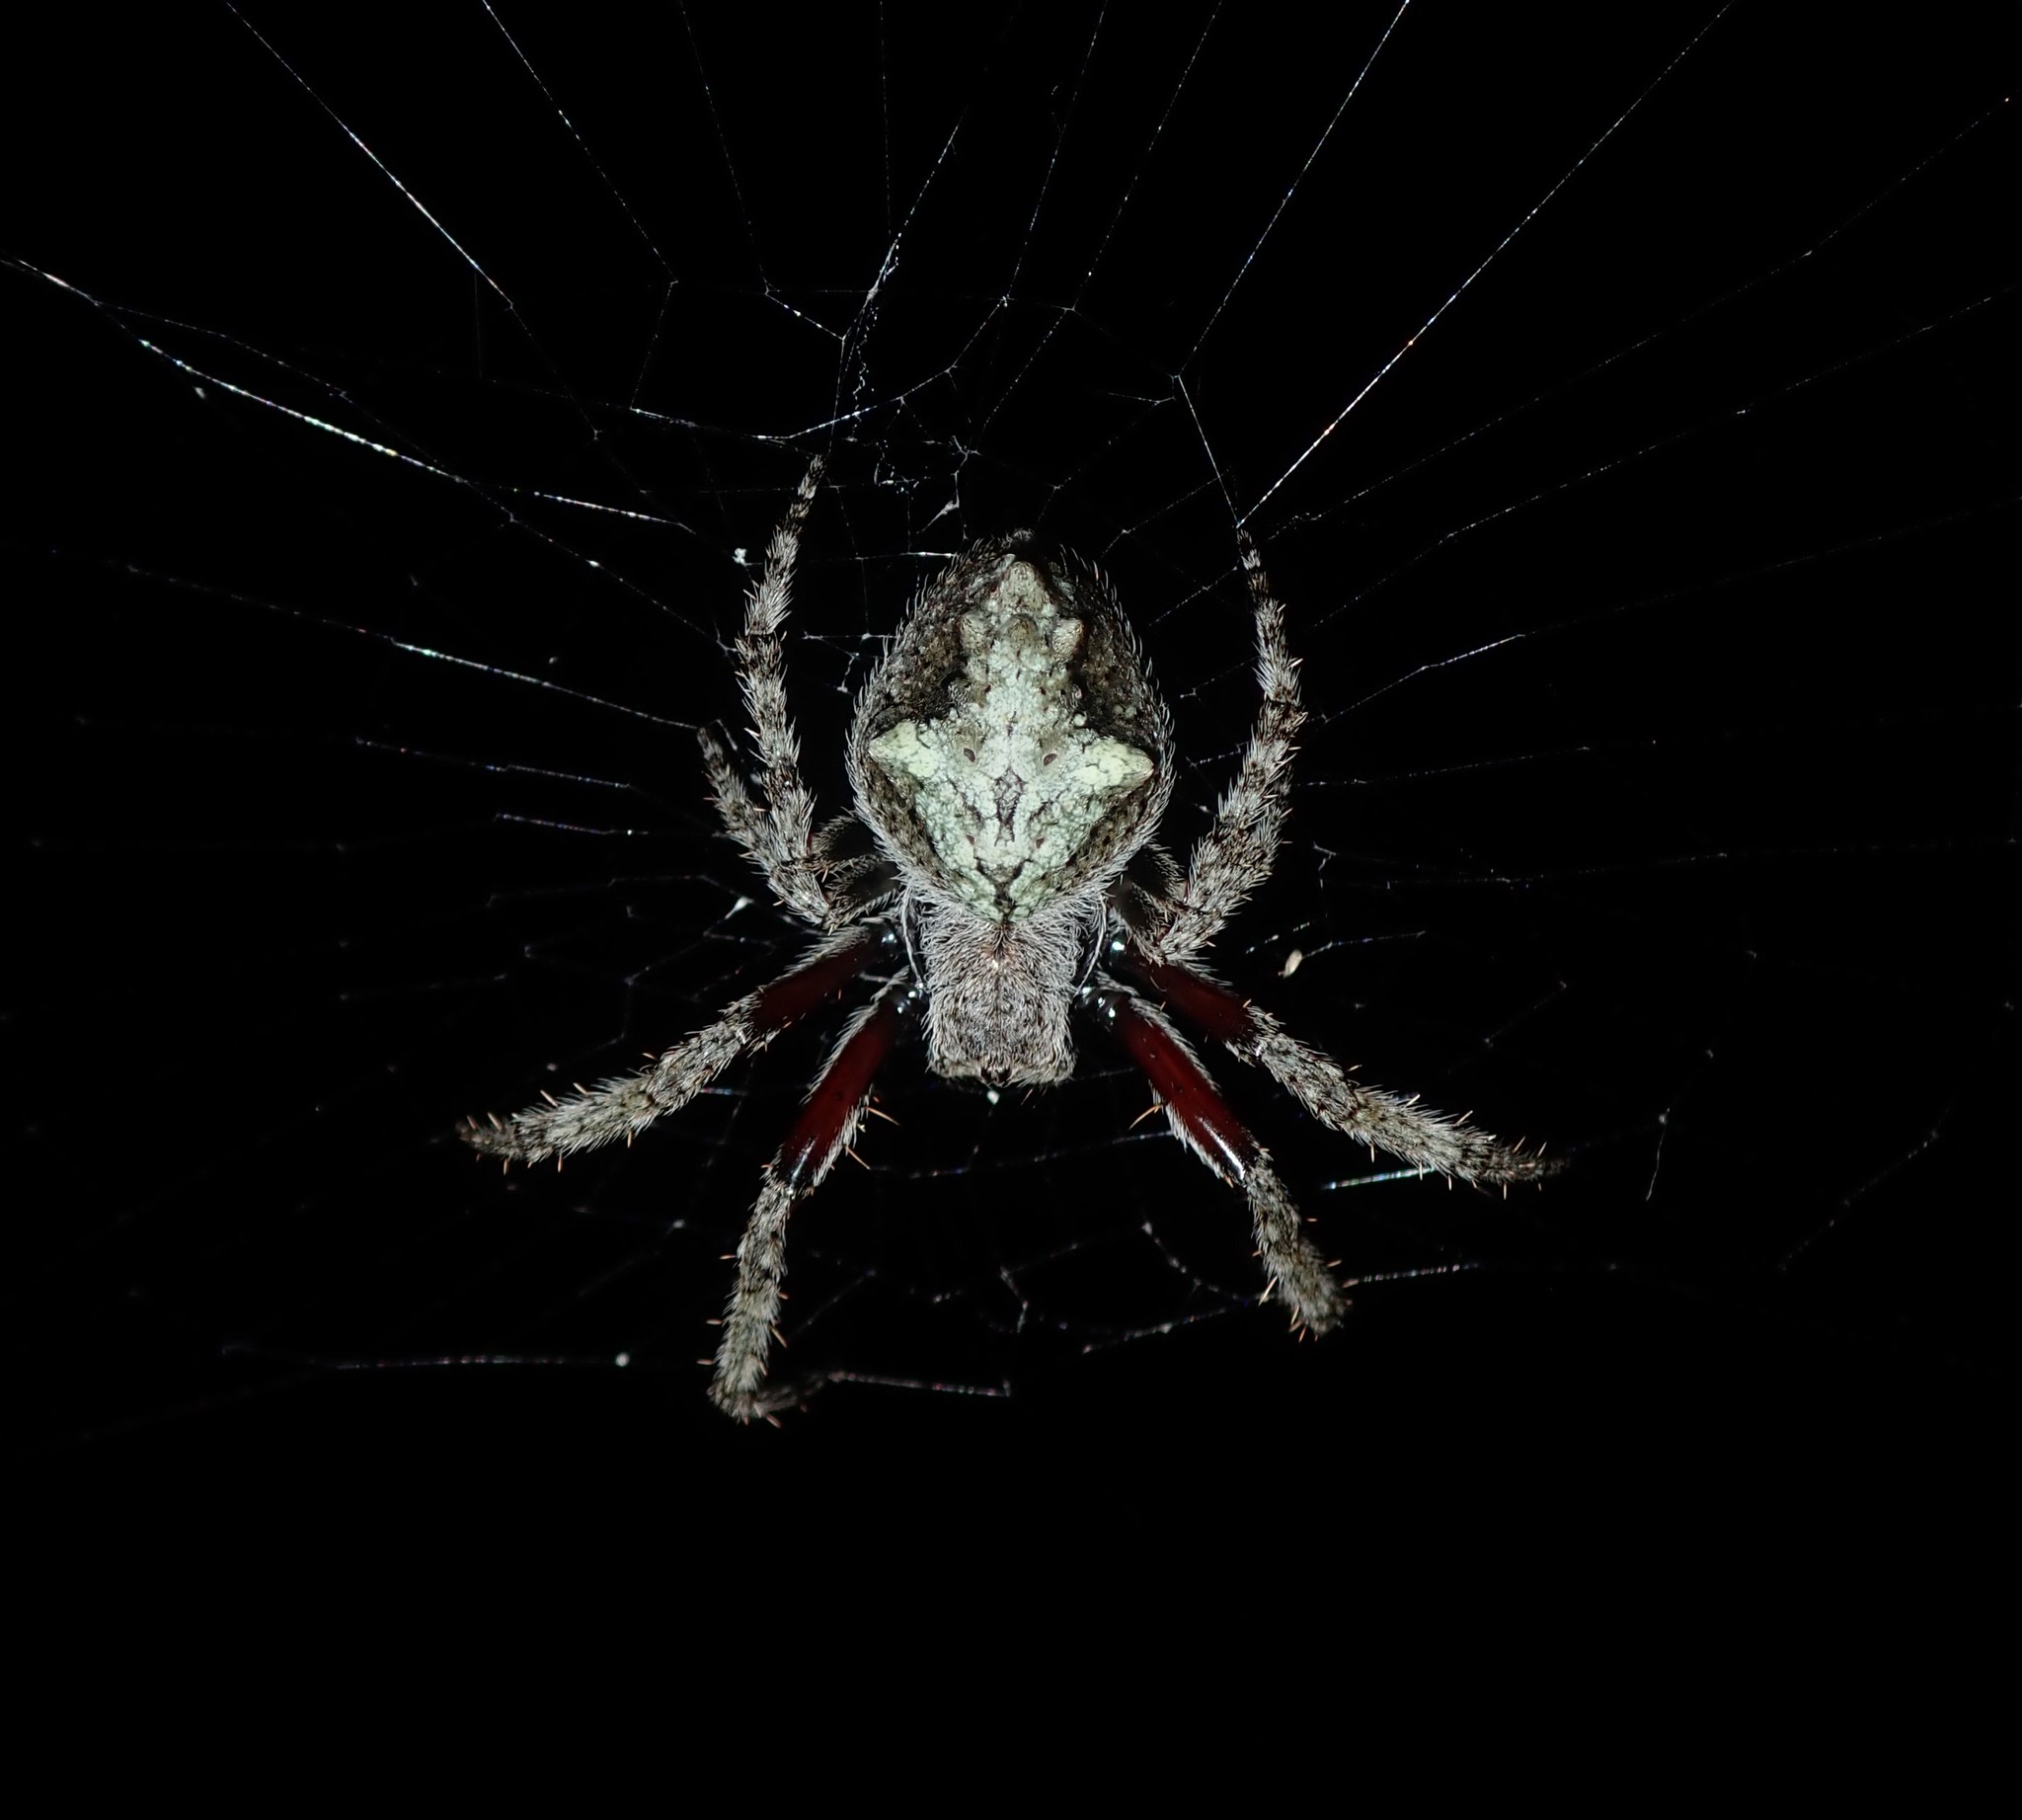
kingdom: Animalia
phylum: Arthropoda
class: Arachnida
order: Araneae
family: Araneidae
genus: Eriophora
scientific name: Eriophora pustulosa
